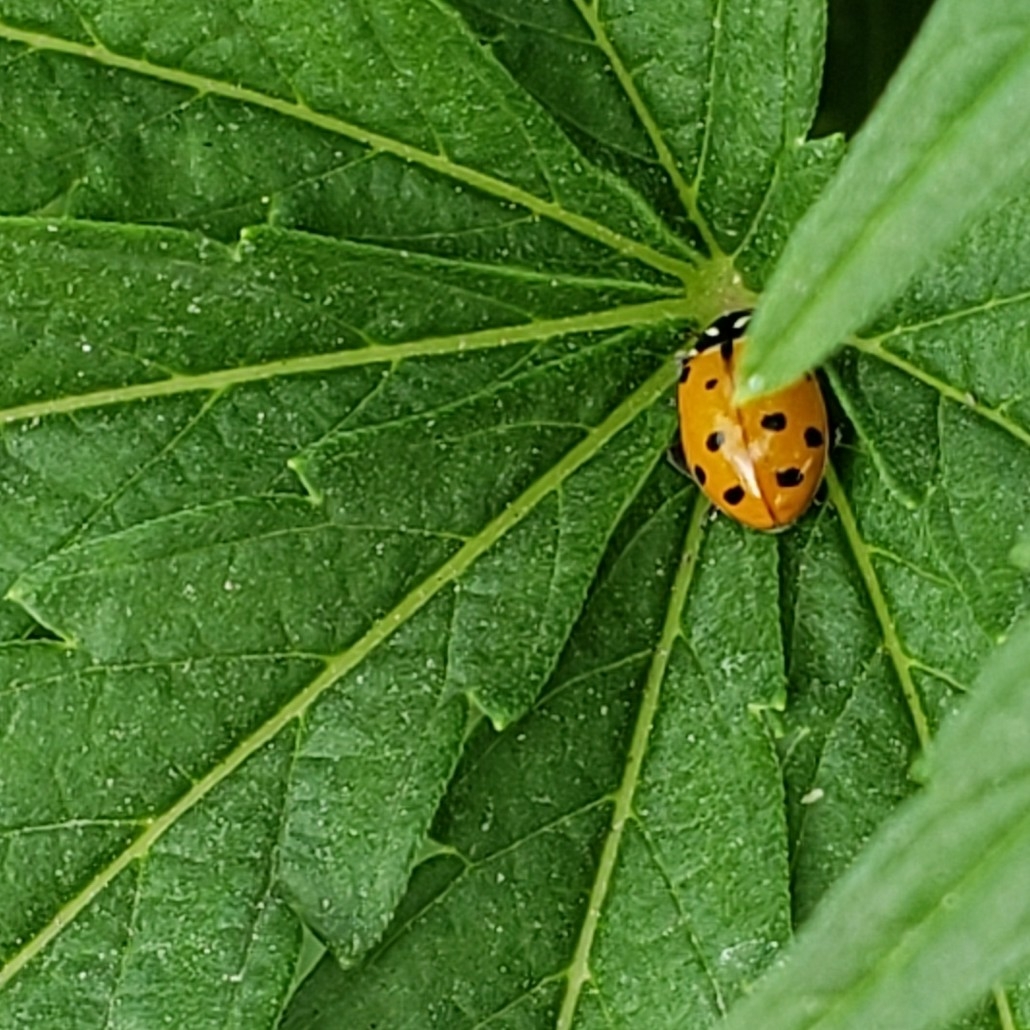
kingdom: Animalia
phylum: Arthropoda
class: Insecta
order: Coleoptera
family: Coccinellidae
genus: Hippodamia
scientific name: Hippodamia convergens
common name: Convergent lady beetle
